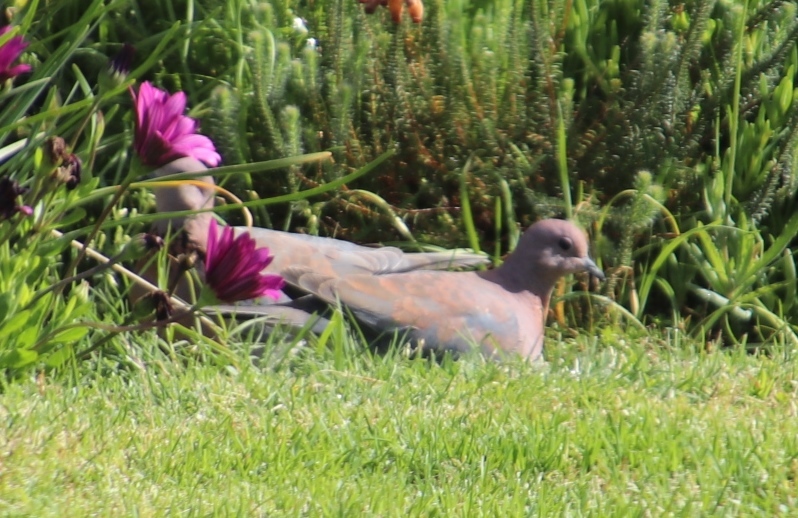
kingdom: Animalia
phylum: Chordata
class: Aves
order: Columbiformes
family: Columbidae
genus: Spilopelia
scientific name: Spilopelia senegalensis
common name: Laughing dove
